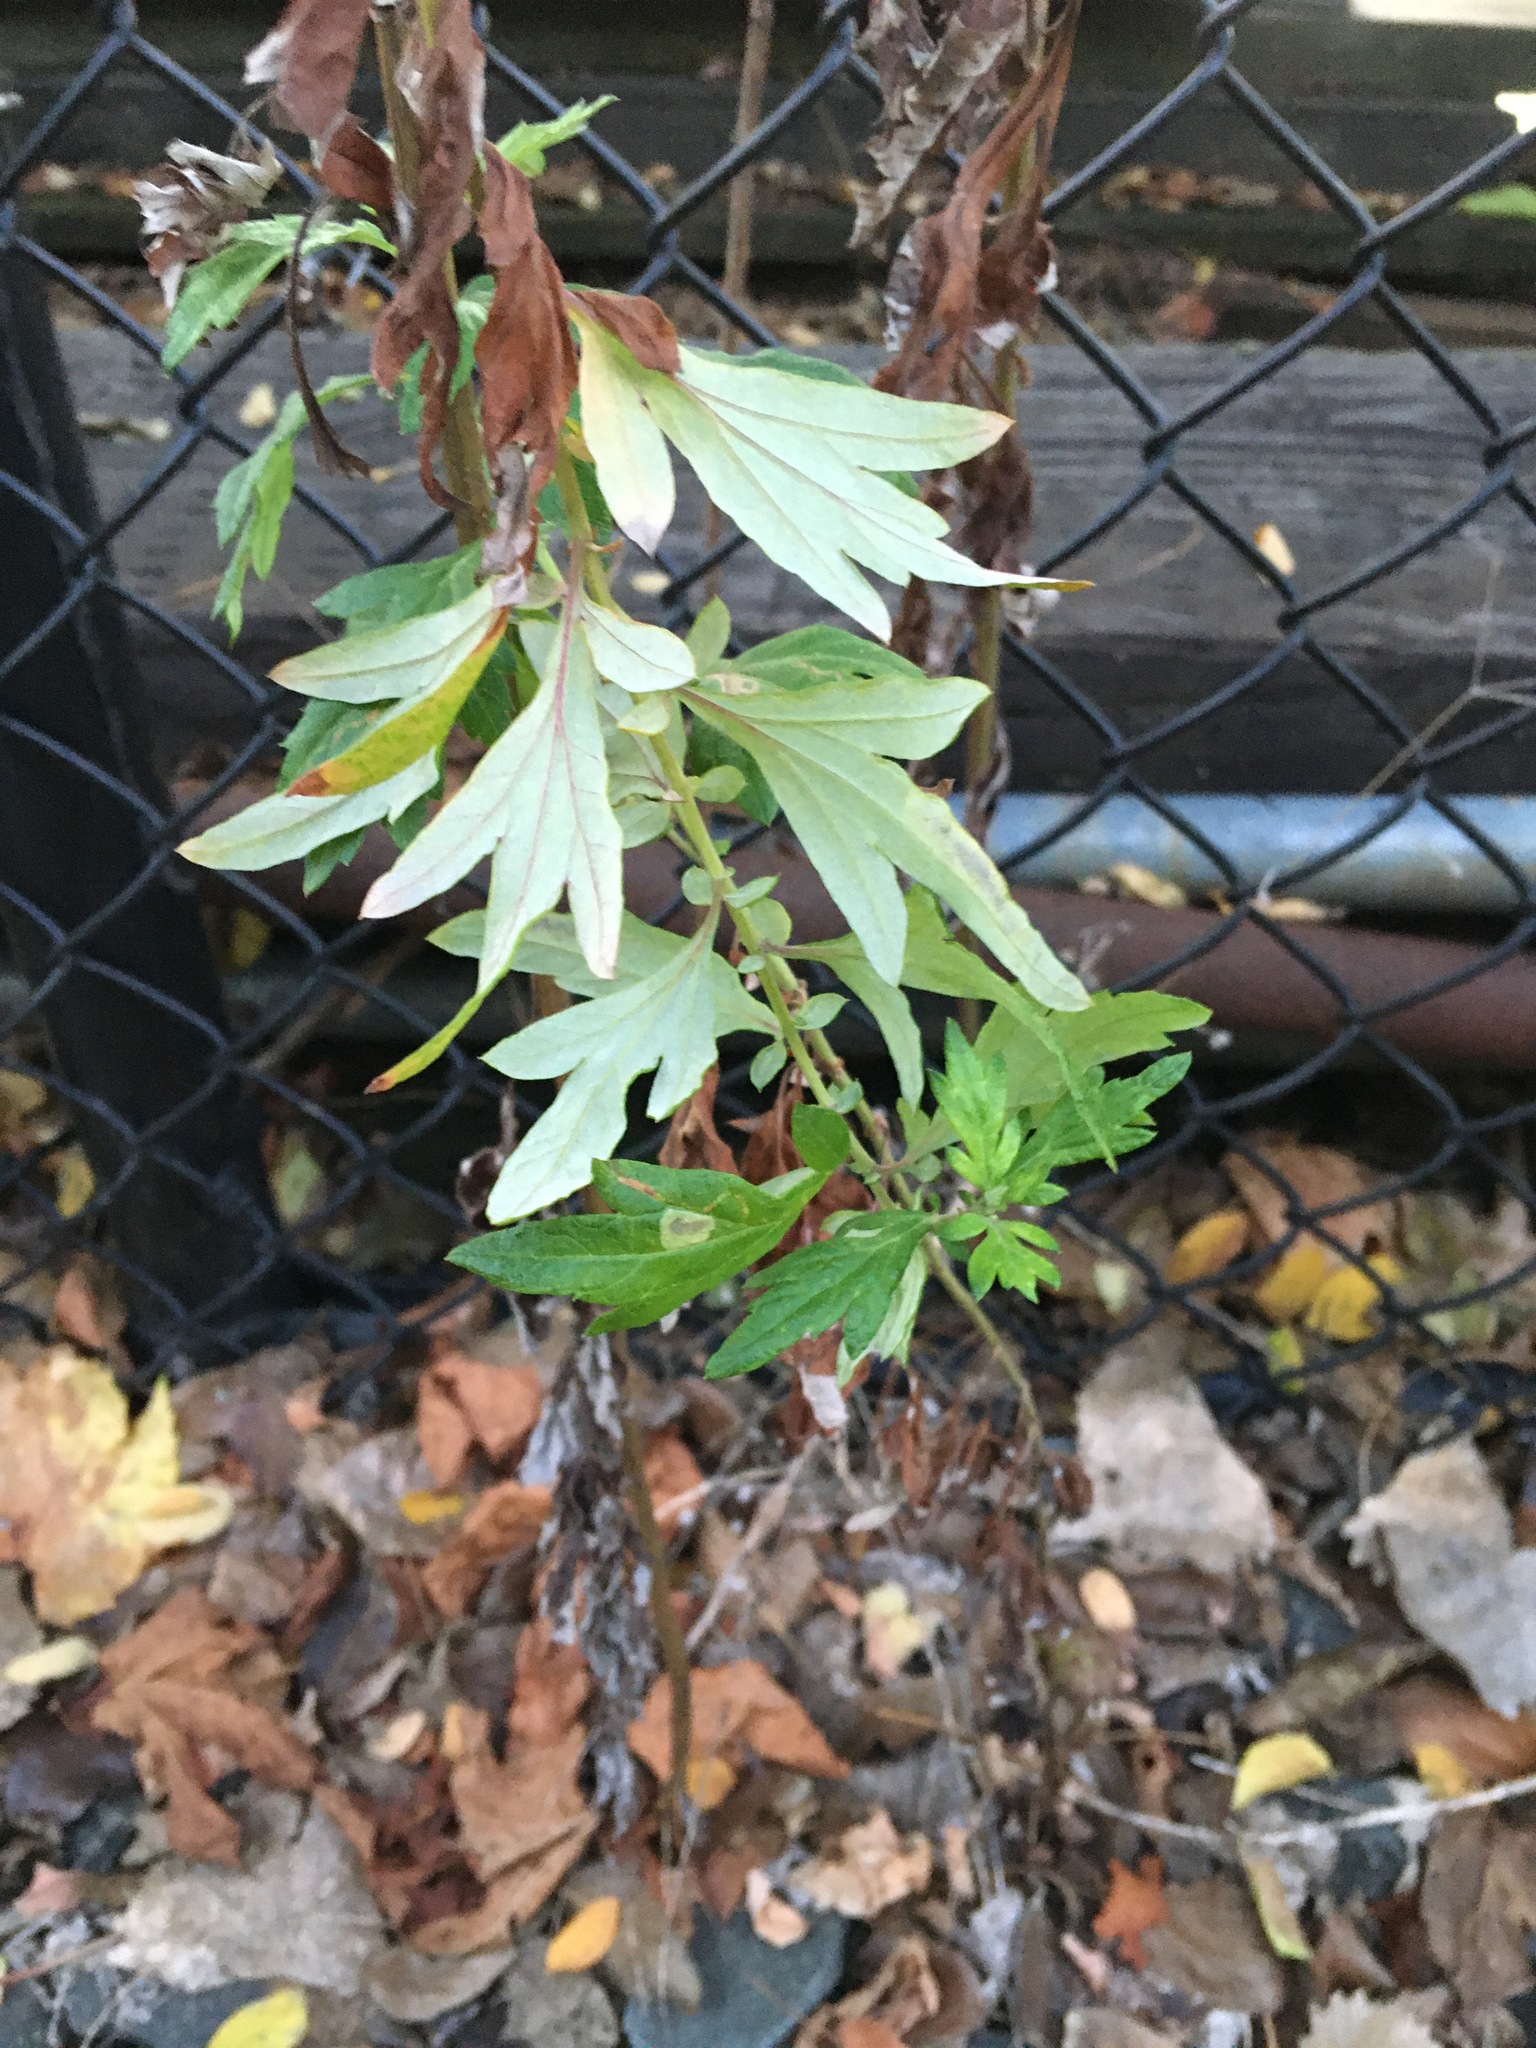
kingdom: Plantae
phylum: Tracheophyta
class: Magnoliopsida
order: Asterales
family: Asteraceae
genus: Artemisia
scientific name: Artemisia vulgaris
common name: Mugwort
